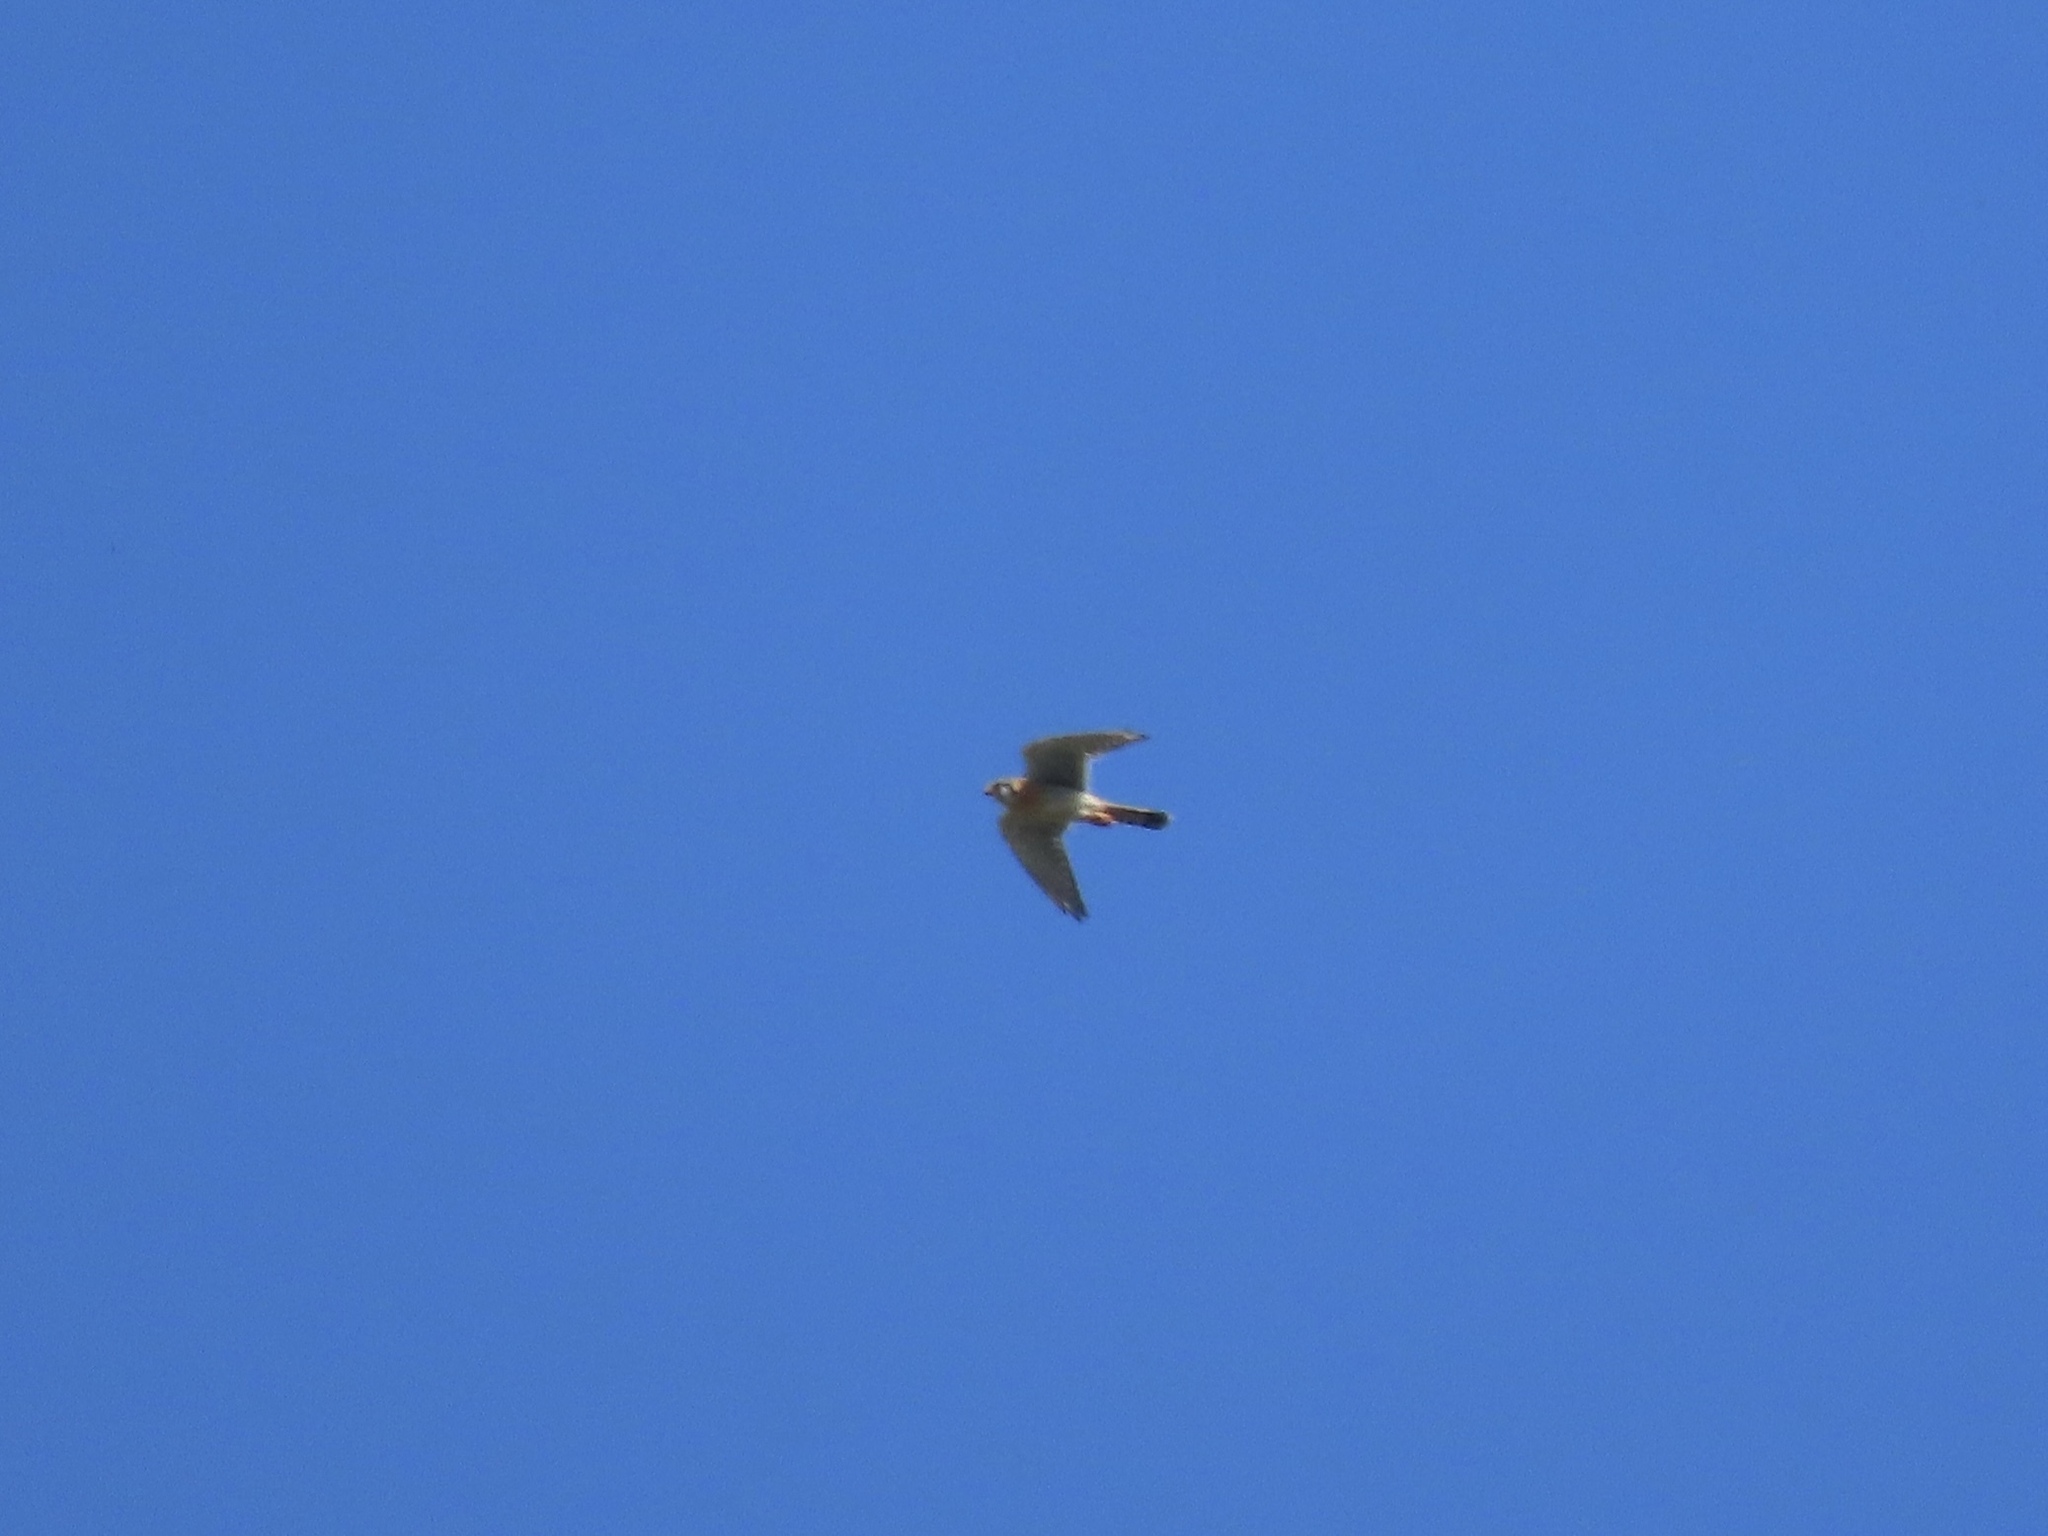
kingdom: Animalia
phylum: Chordata
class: Aves
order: Falconiformes
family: Falconidae
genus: Falco
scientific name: Falco sparverius
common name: American kestrel
